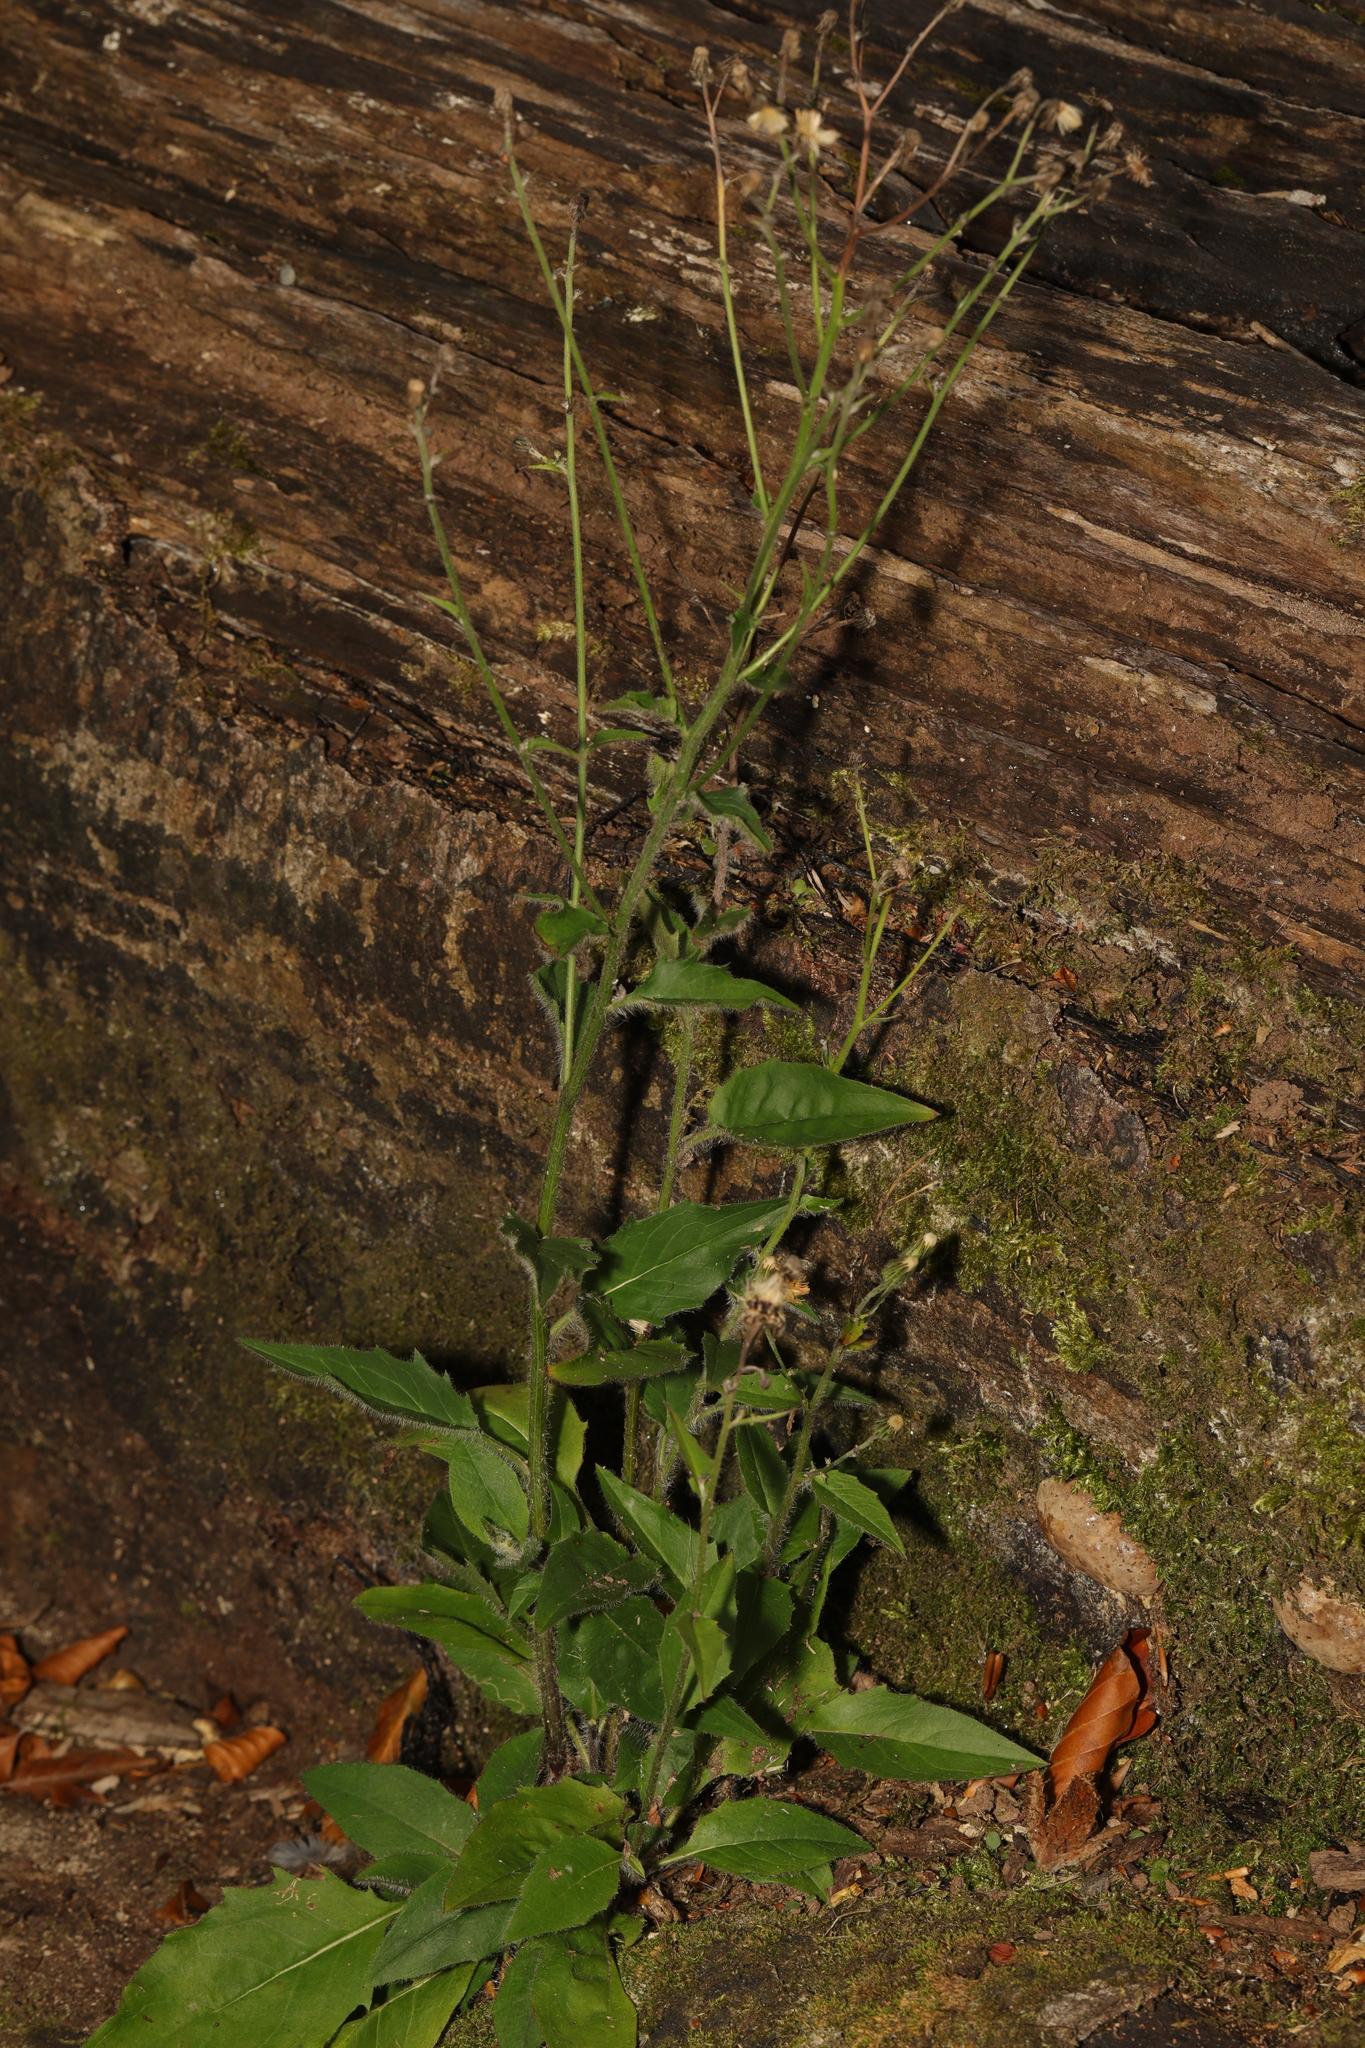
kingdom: Plantae
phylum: Tracheophyta
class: Magnoliopsida
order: Asterales
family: Asteraceae
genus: Lapsana
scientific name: Lapsana communis
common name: Nipplewort
